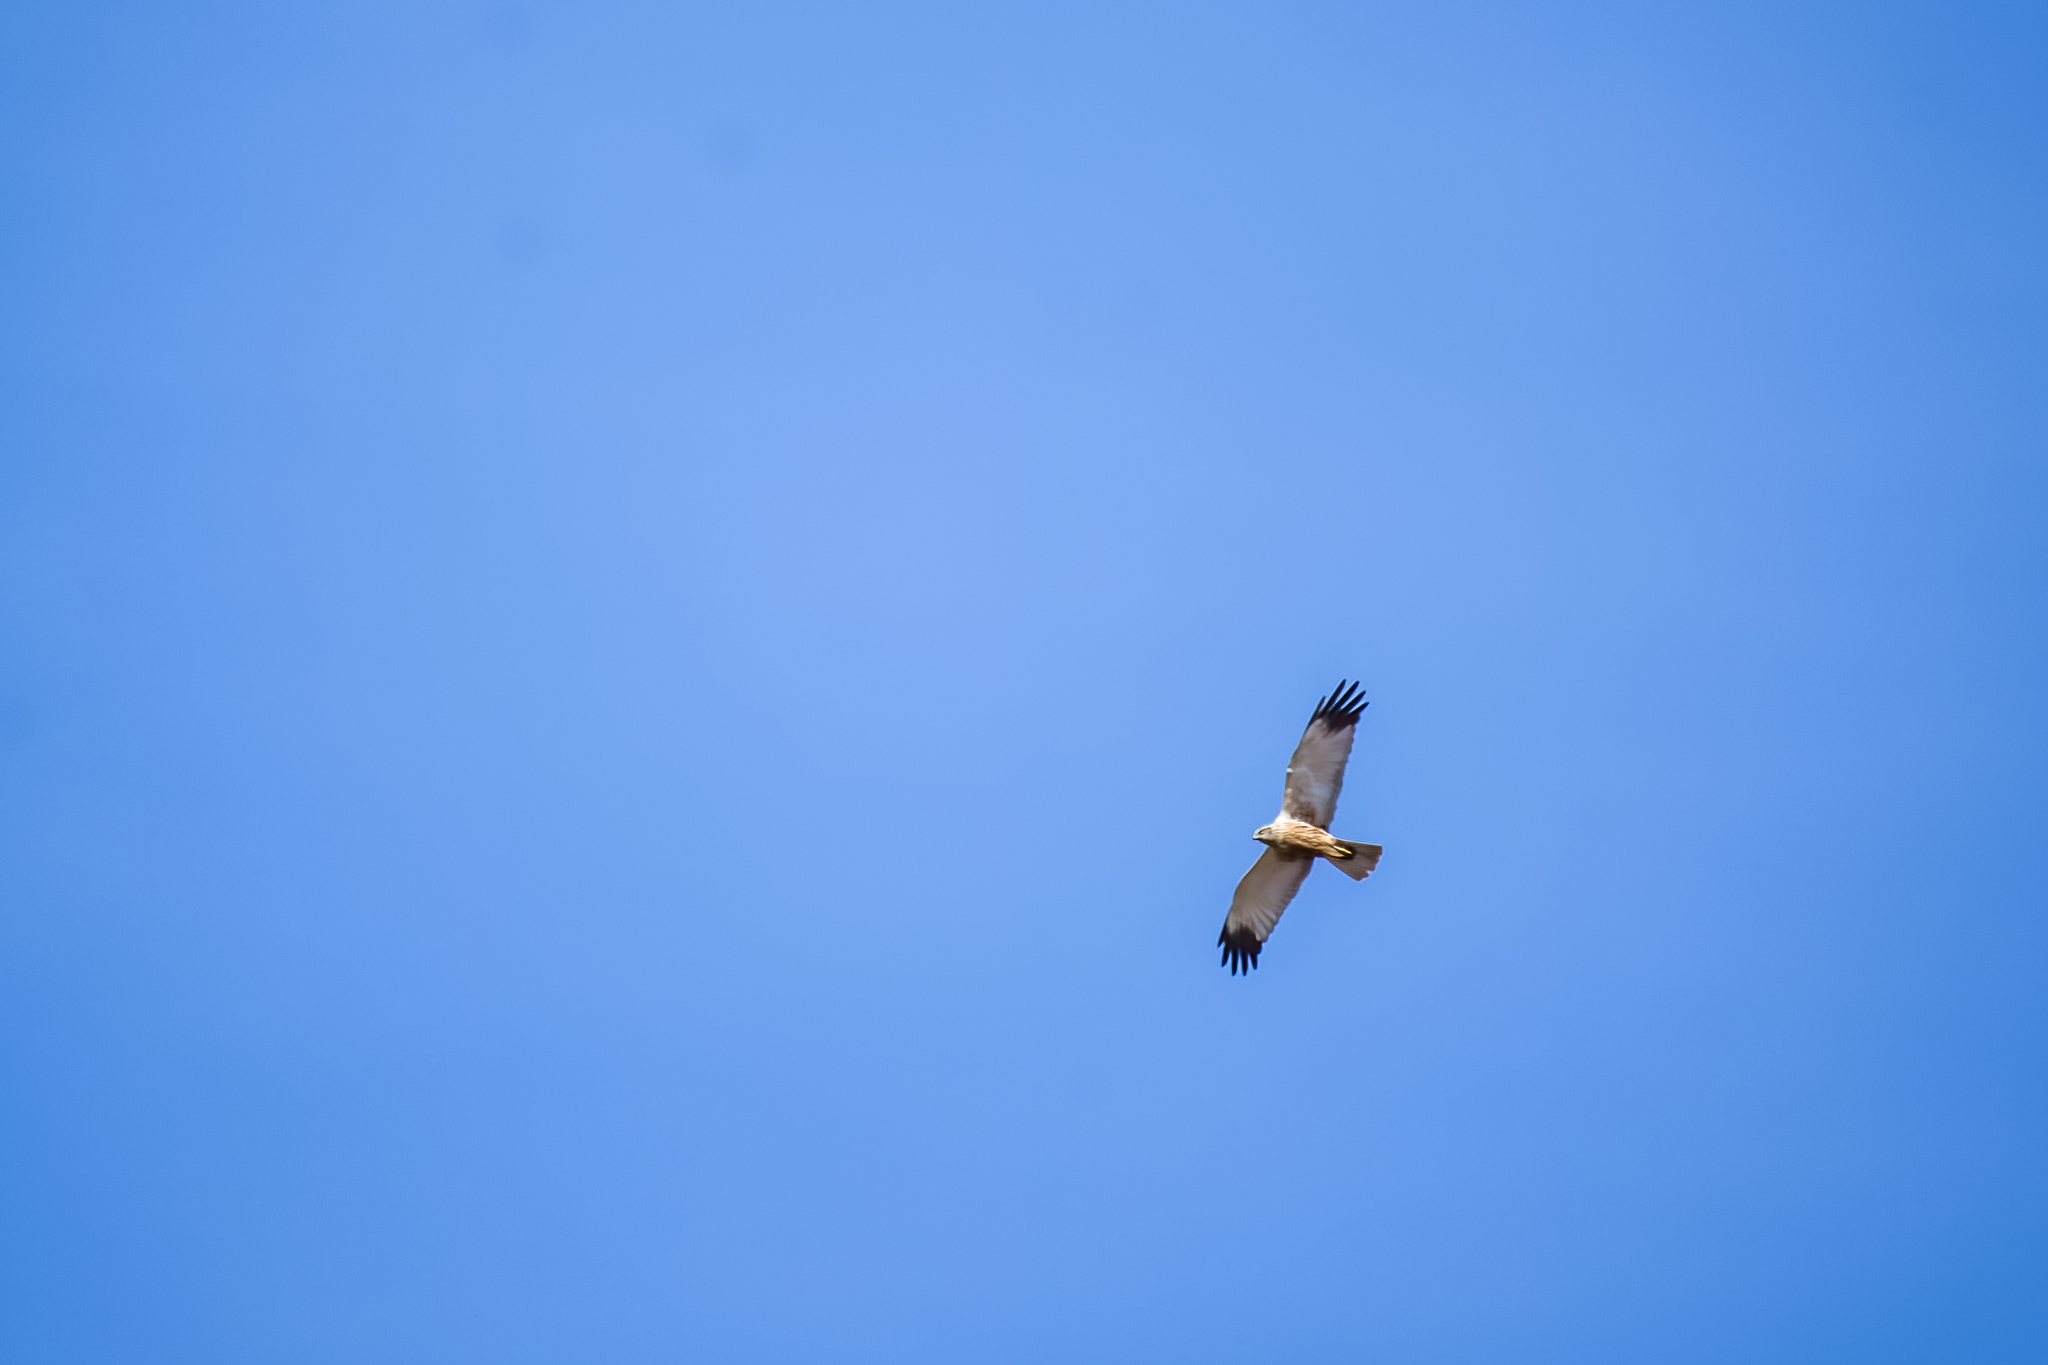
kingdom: Animalia
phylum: Chordata
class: Aves
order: Accipitriformes
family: Accipitridae
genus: Circus
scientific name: Circus aeruginosus
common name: Western marsh harrier
